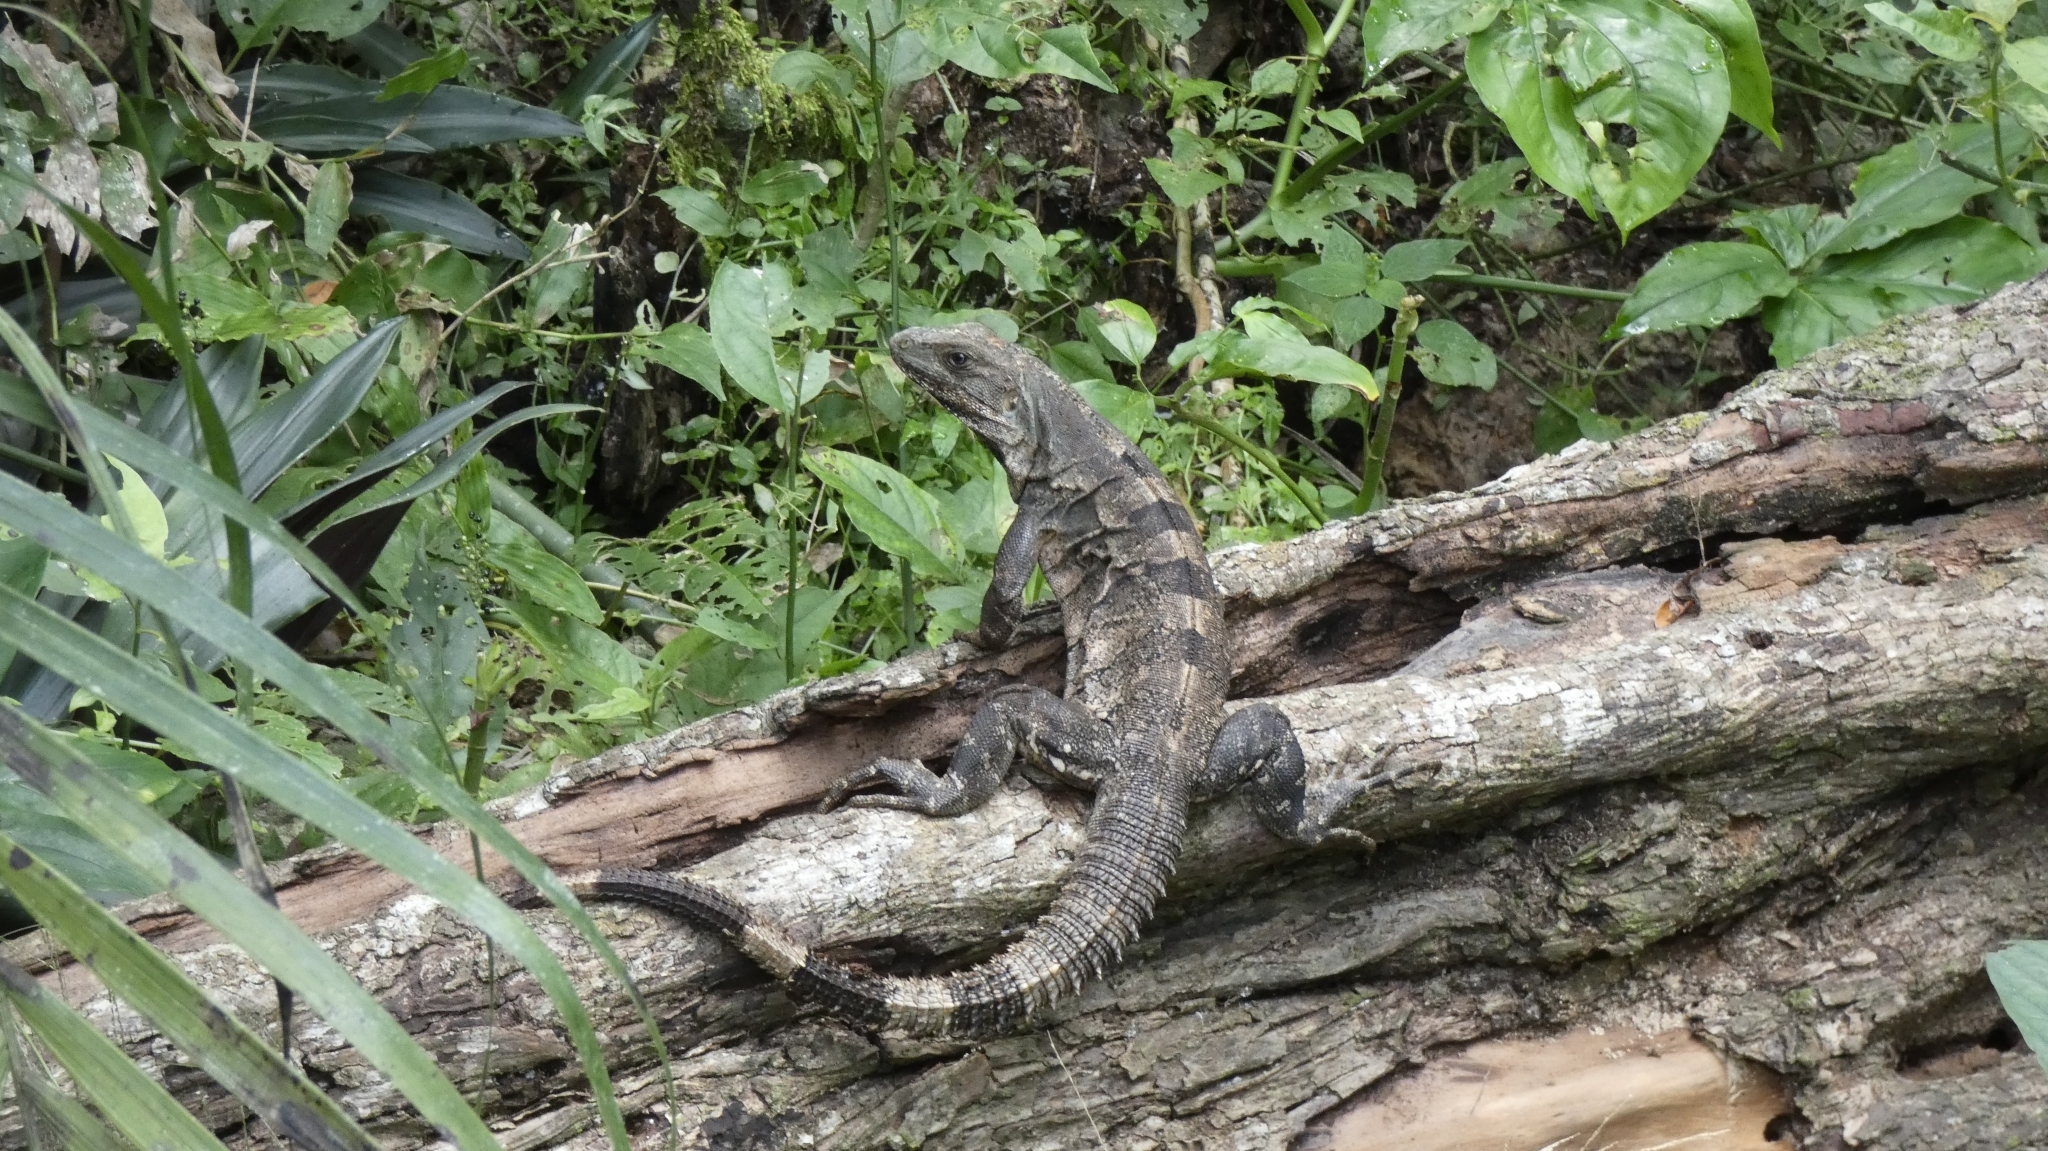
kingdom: Animalia
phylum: Chordata
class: Squamata
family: Iguanidae
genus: Ctenosaura
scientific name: Ctenosaura similis
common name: Black spiny-tailed iguana
